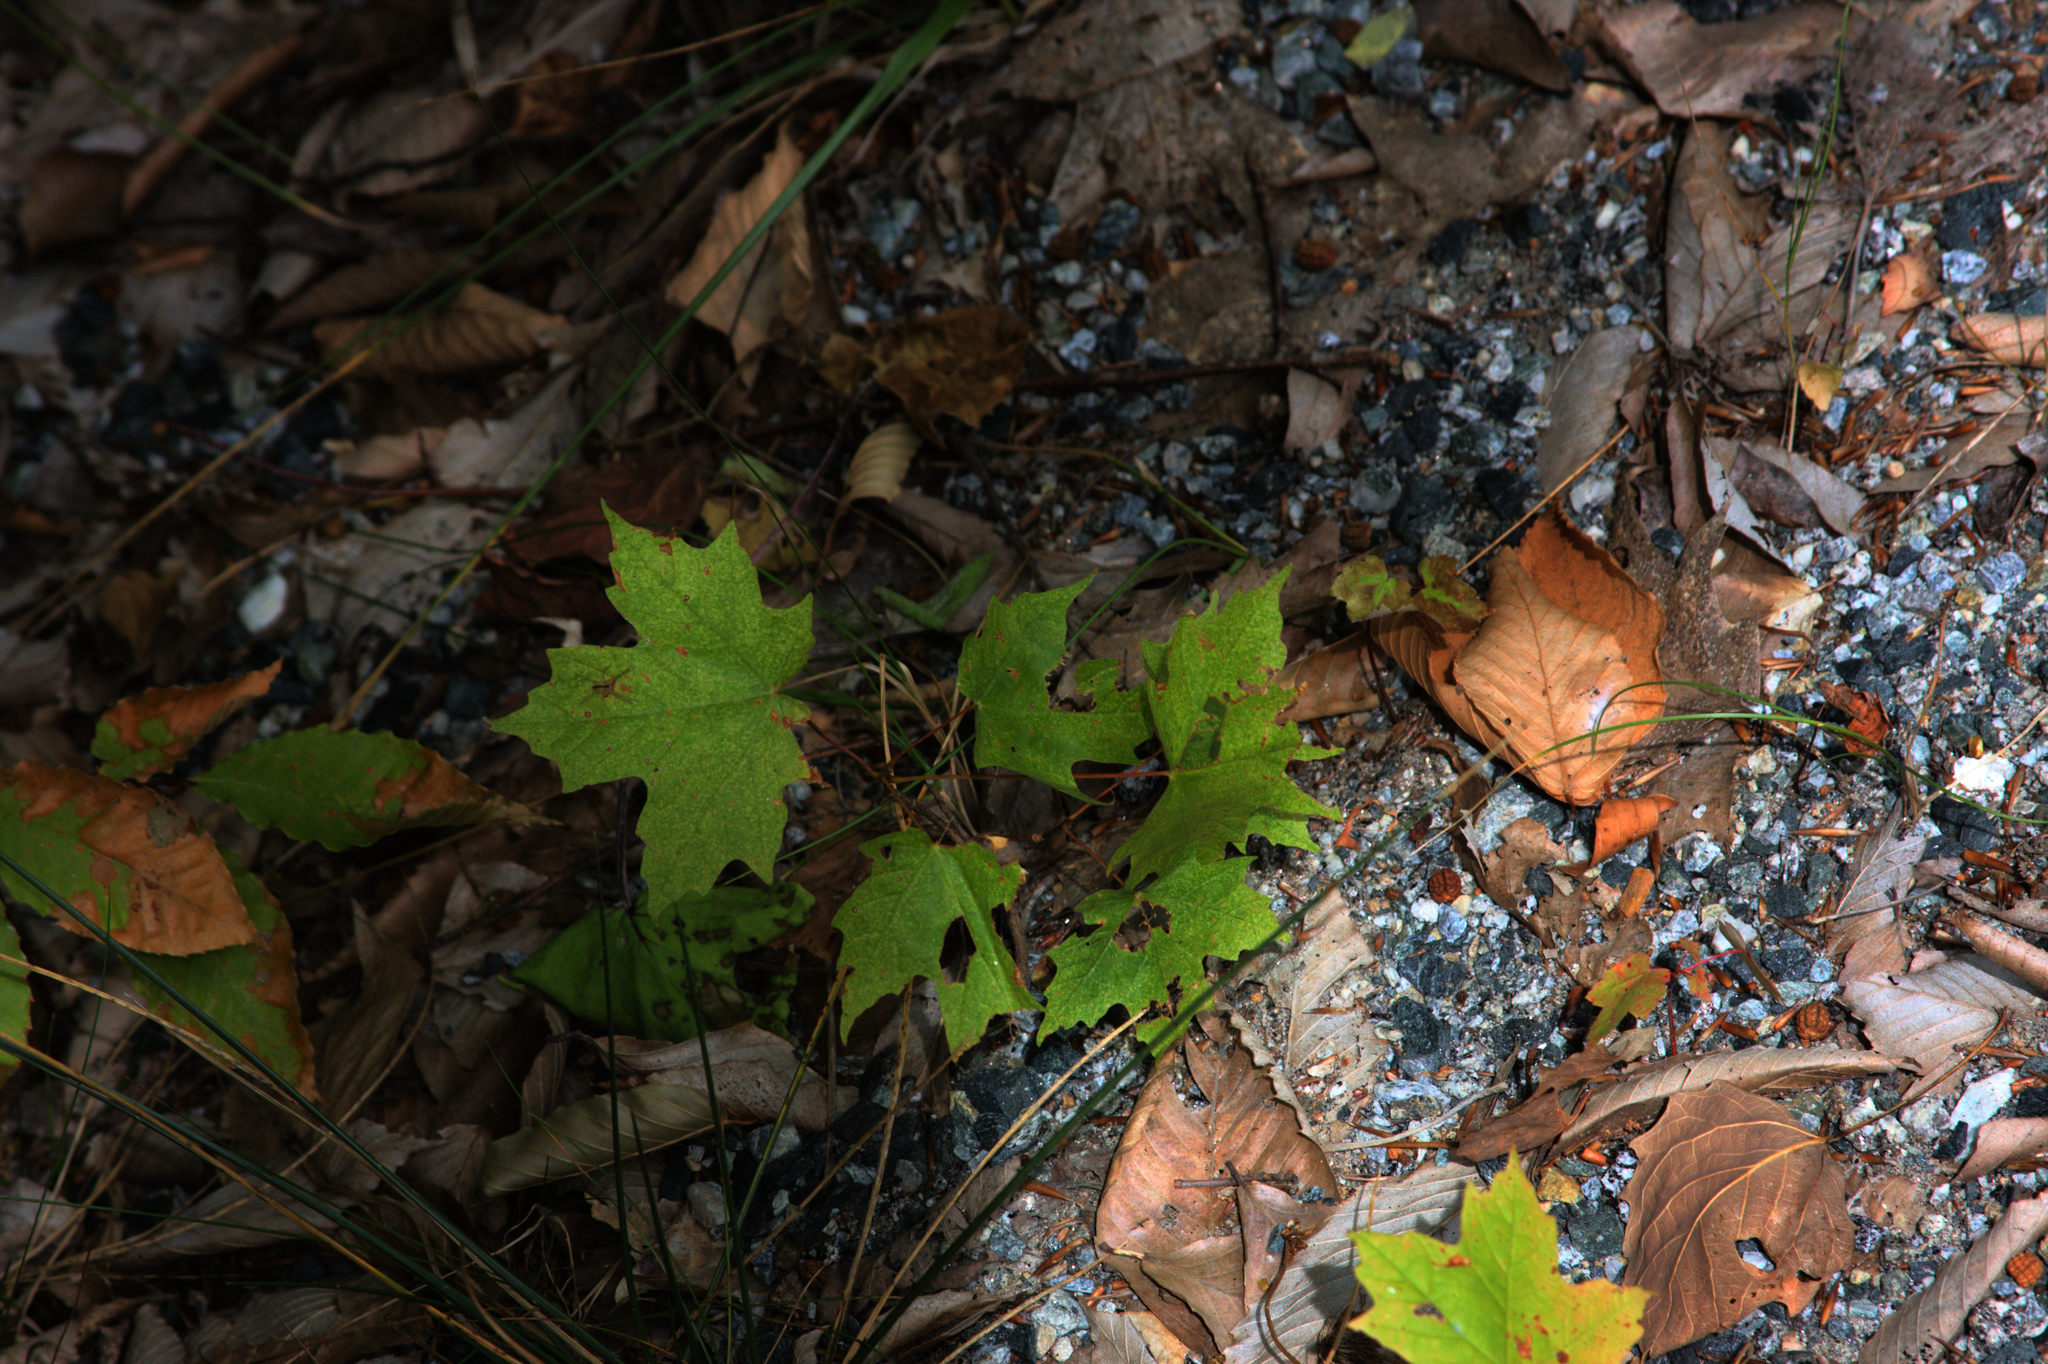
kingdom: Plantae
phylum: Tracheophyta
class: Magnoliopsida
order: Sapindales
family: Sapindaceae
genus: Acer
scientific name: Acer saccharum
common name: Sugar maple
